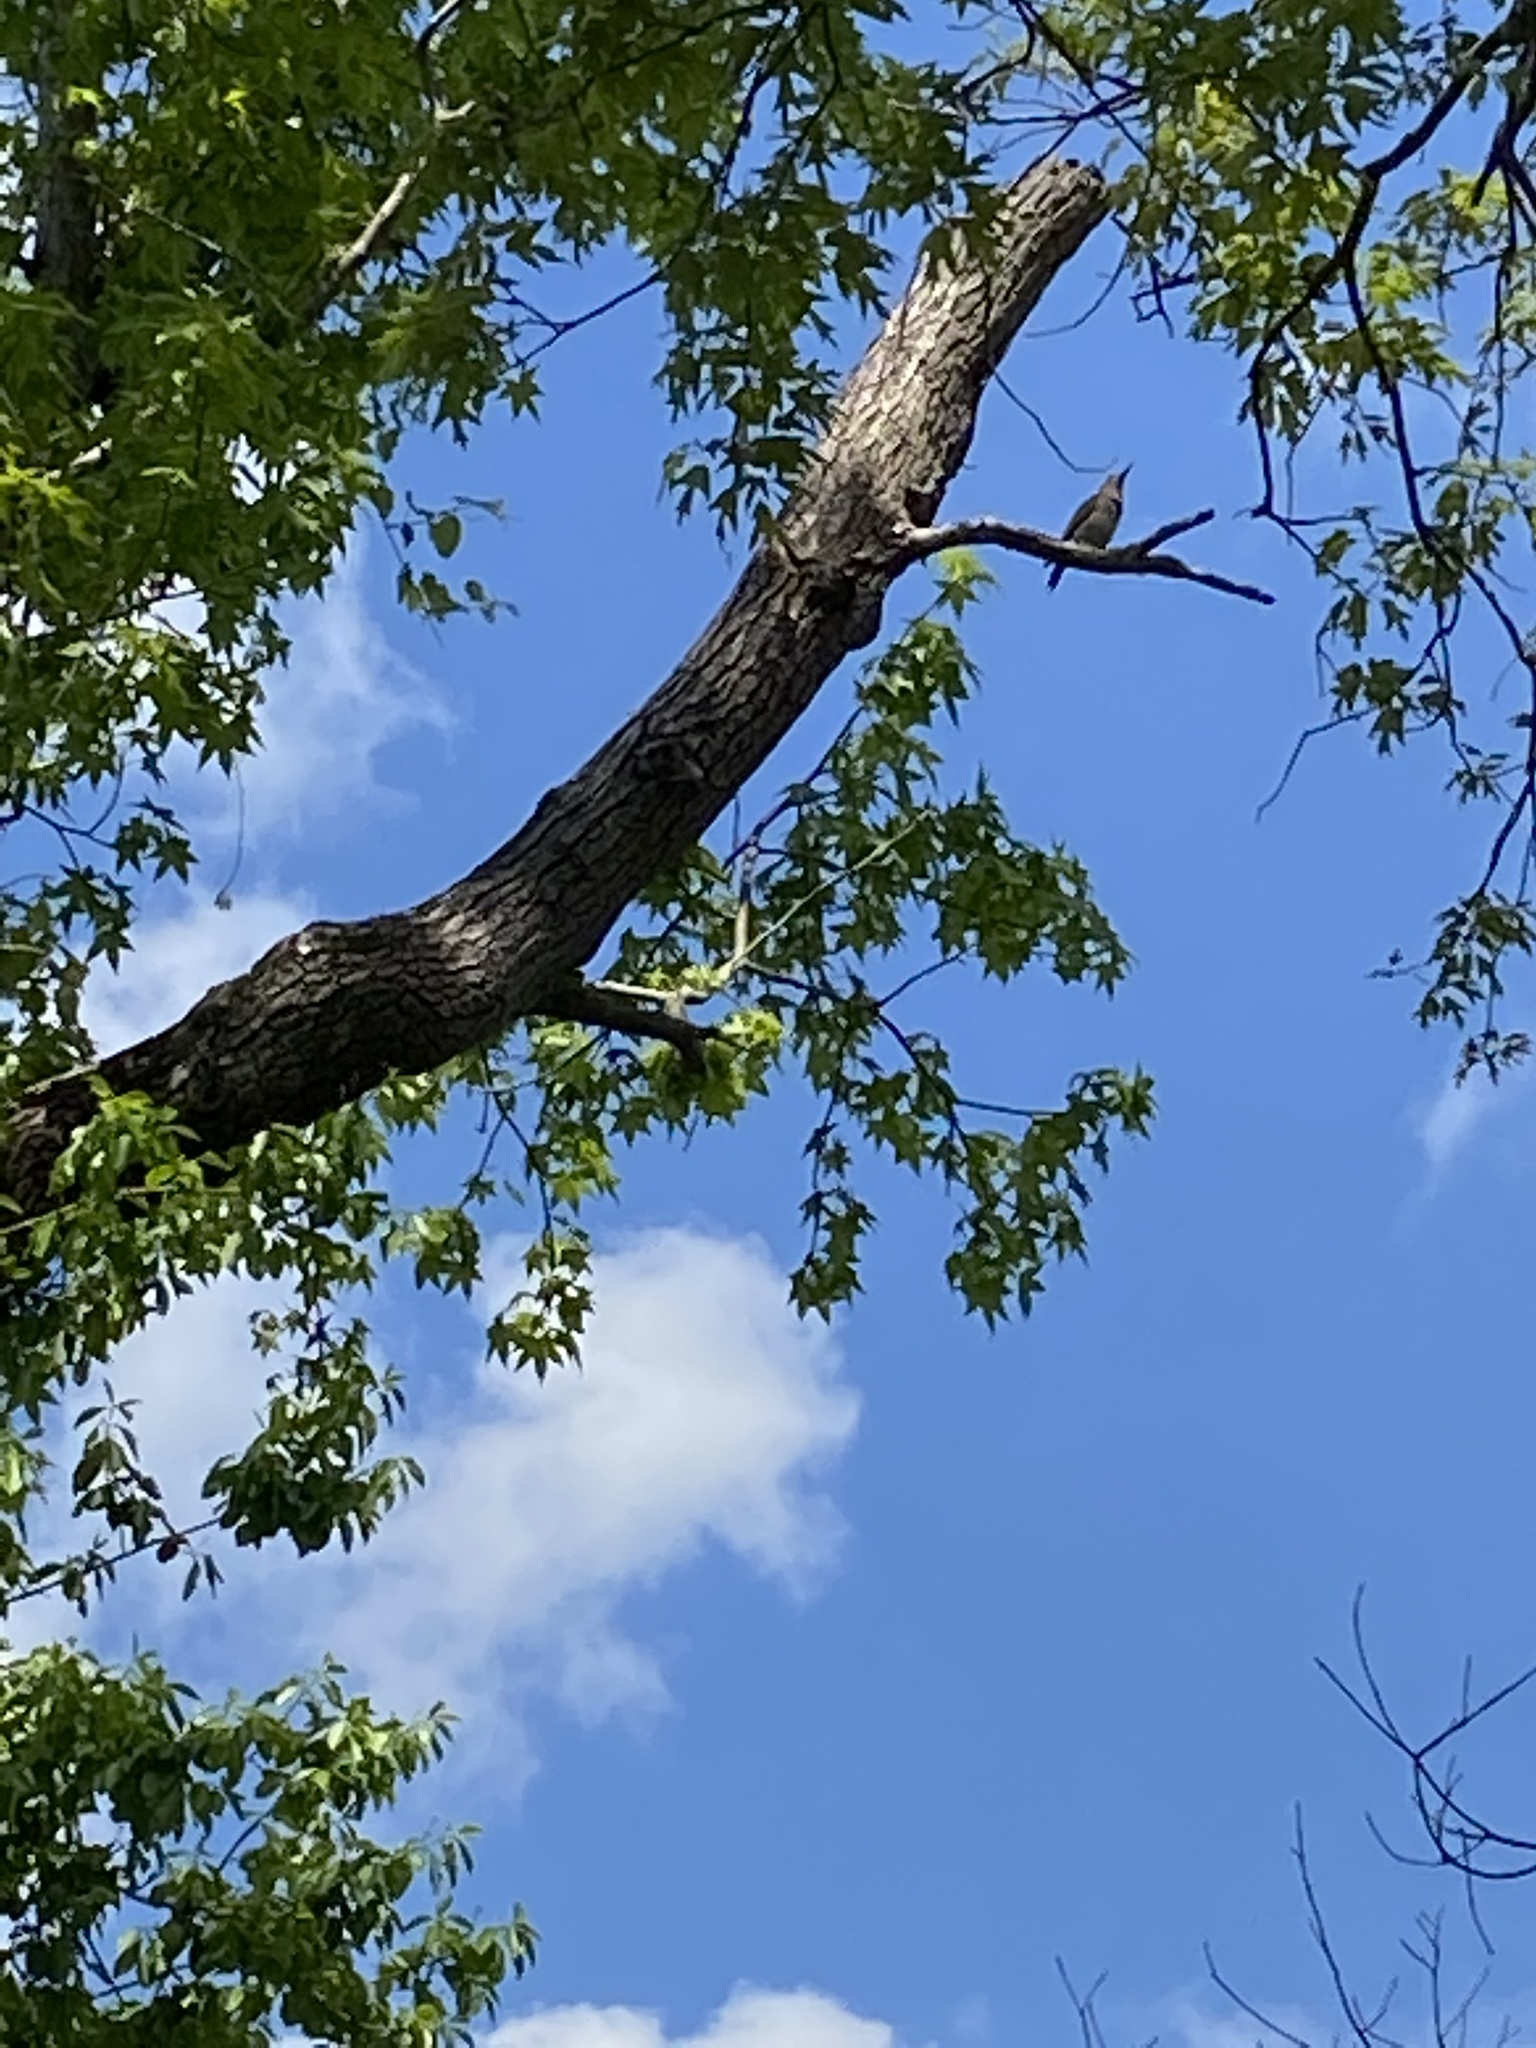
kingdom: Animalia
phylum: Chordata
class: Aves
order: Piciformes
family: Picidae
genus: Colaptes
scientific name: Colaptes auratus
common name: Northern flicker
